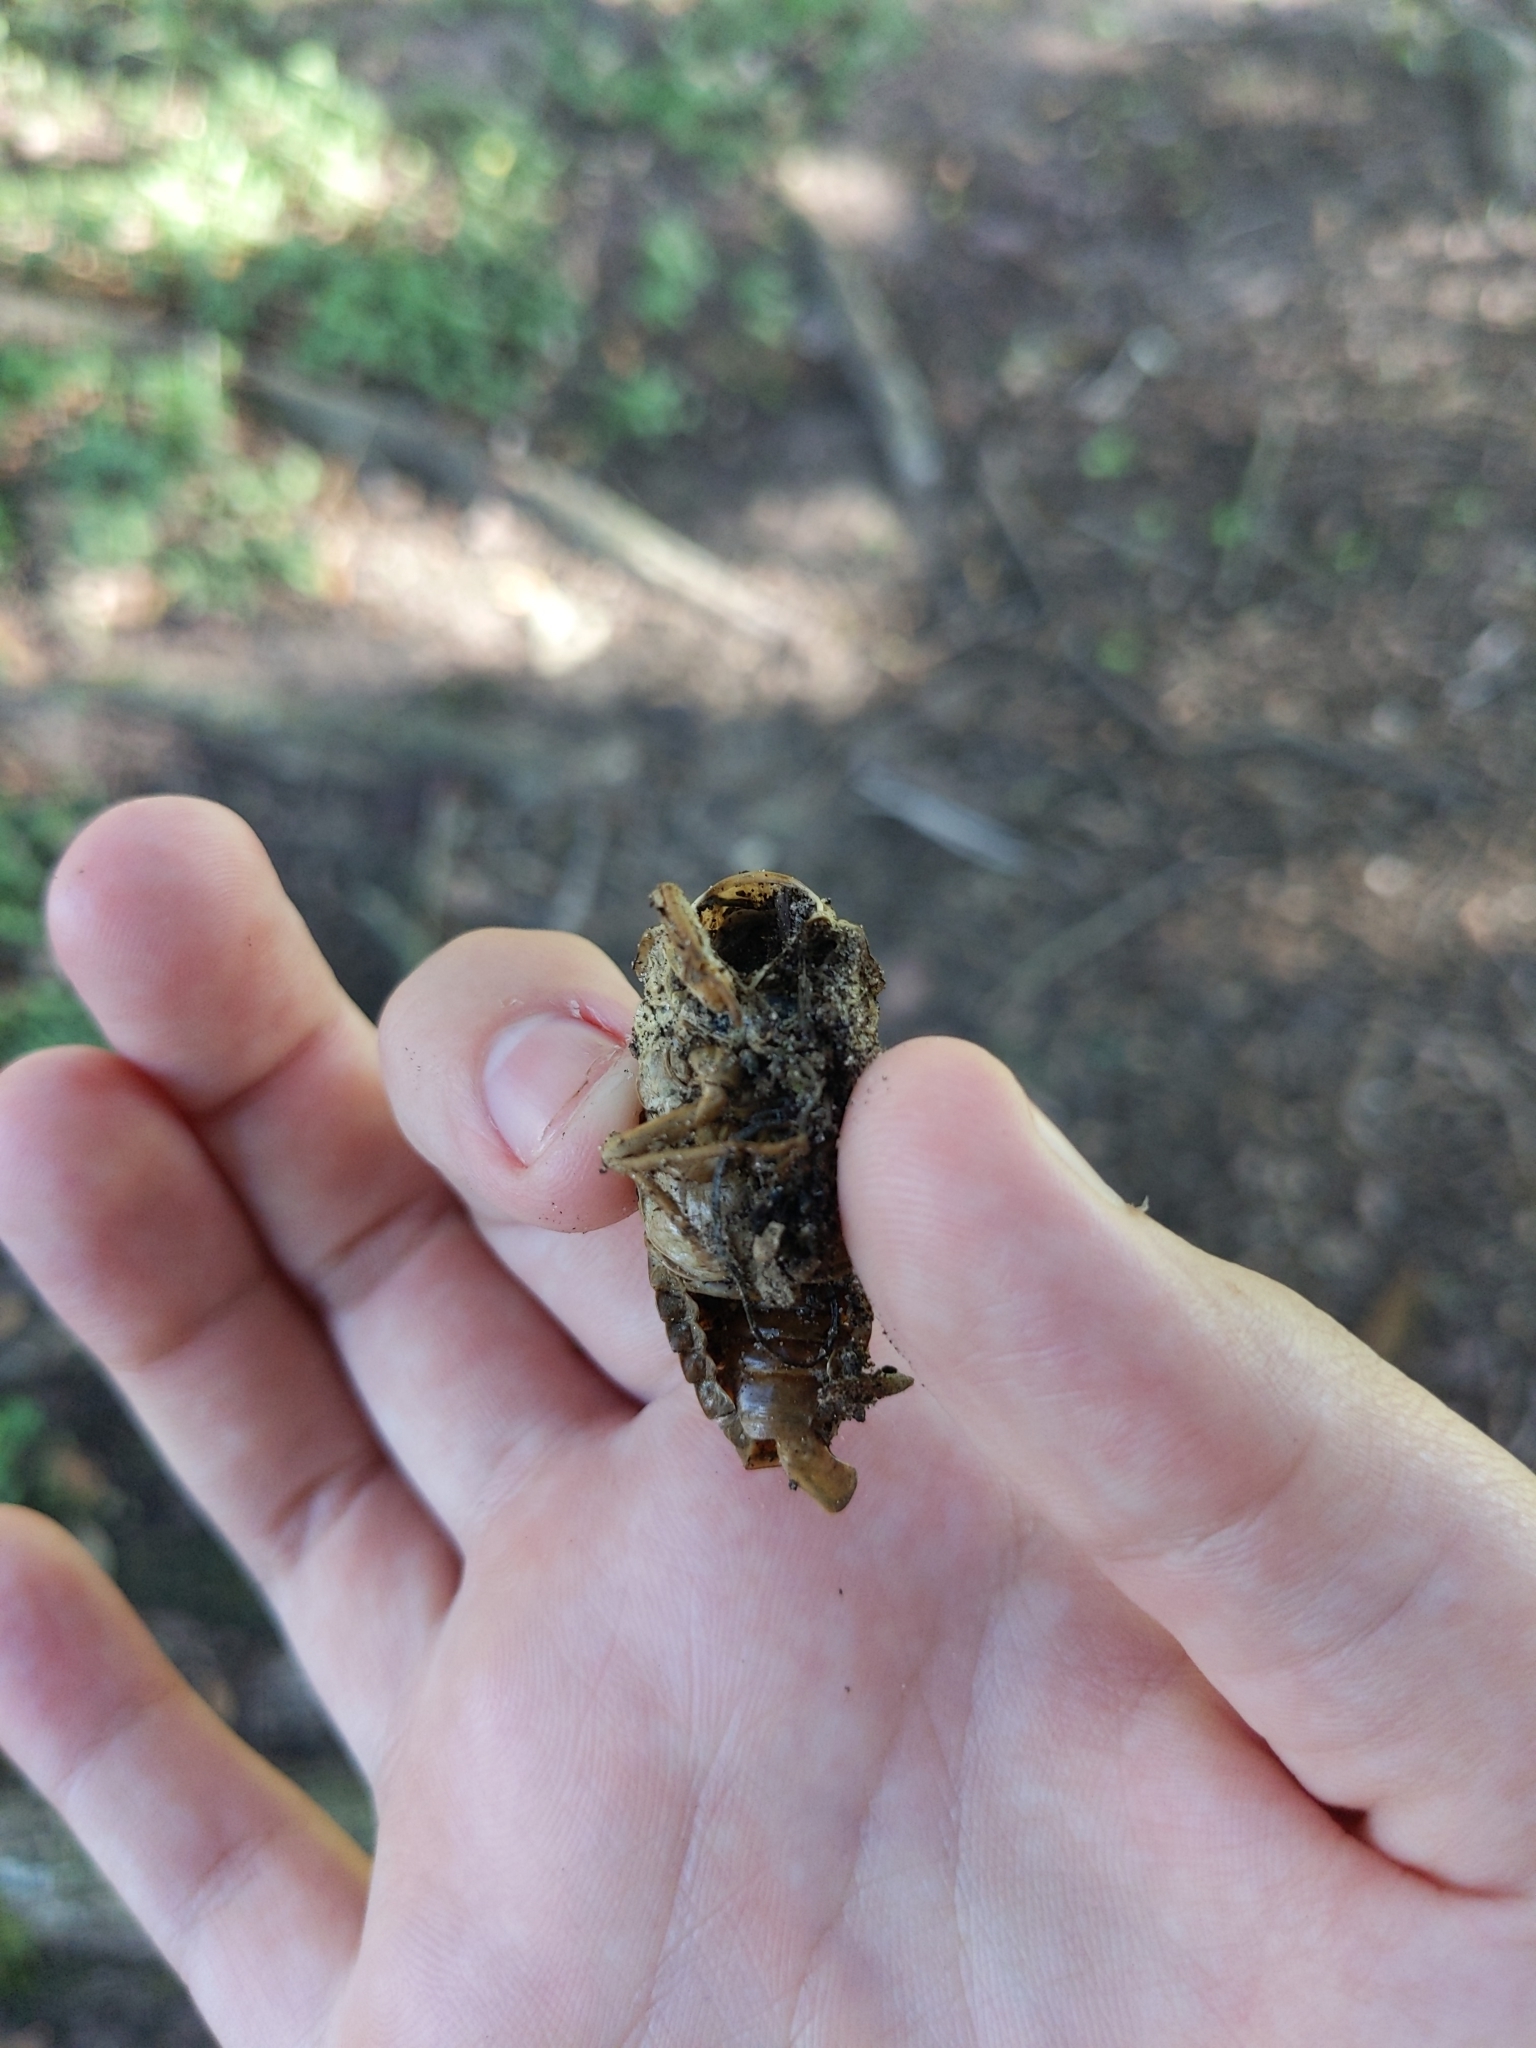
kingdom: Animalia
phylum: Arthropoda
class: Insecta
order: Hemiptera
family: Cicadidae
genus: Megatibicen
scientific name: Megatibicen resh
